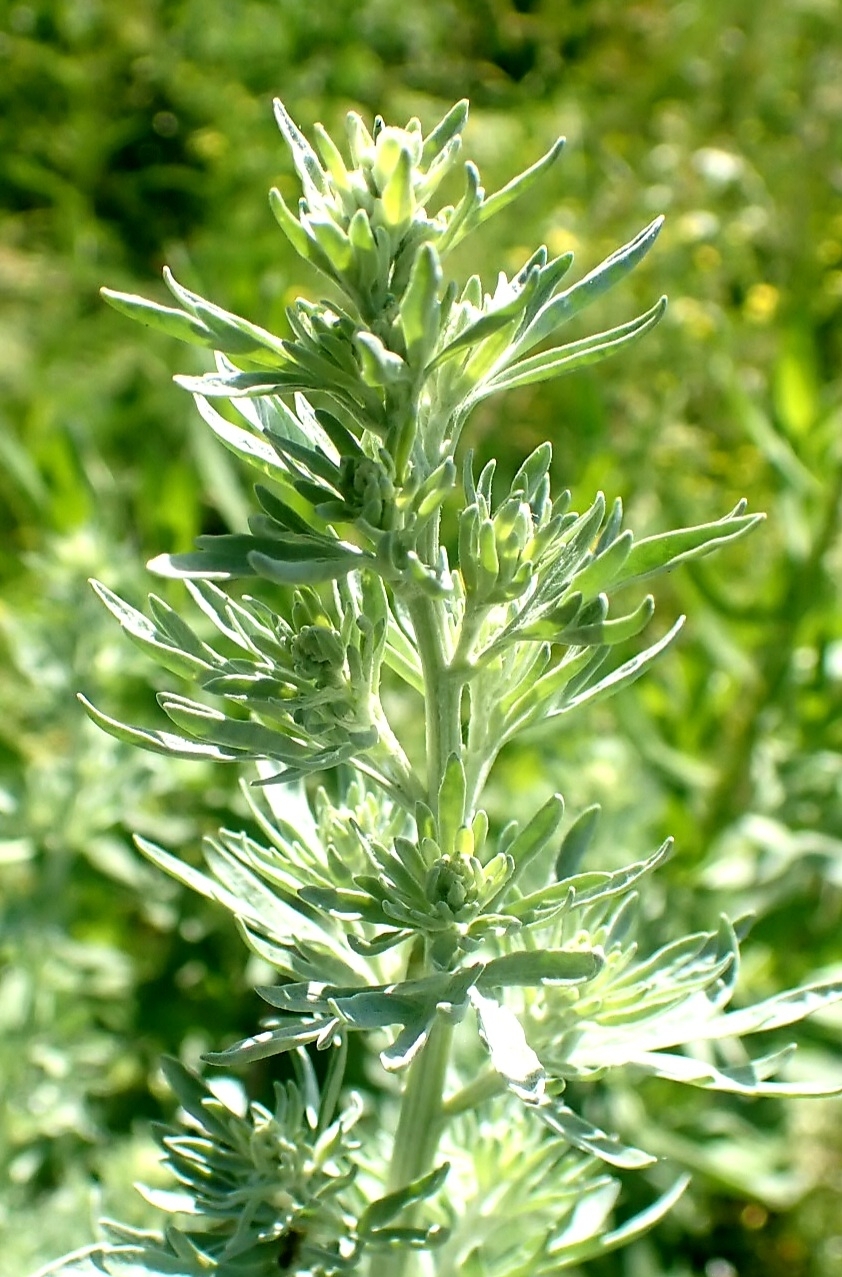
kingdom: Plantae
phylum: Tracheophyta
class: Magnoliopsida
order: Asterales
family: Asteraceae
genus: Artemisia
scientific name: Artemisia absinthium
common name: Wormwood
